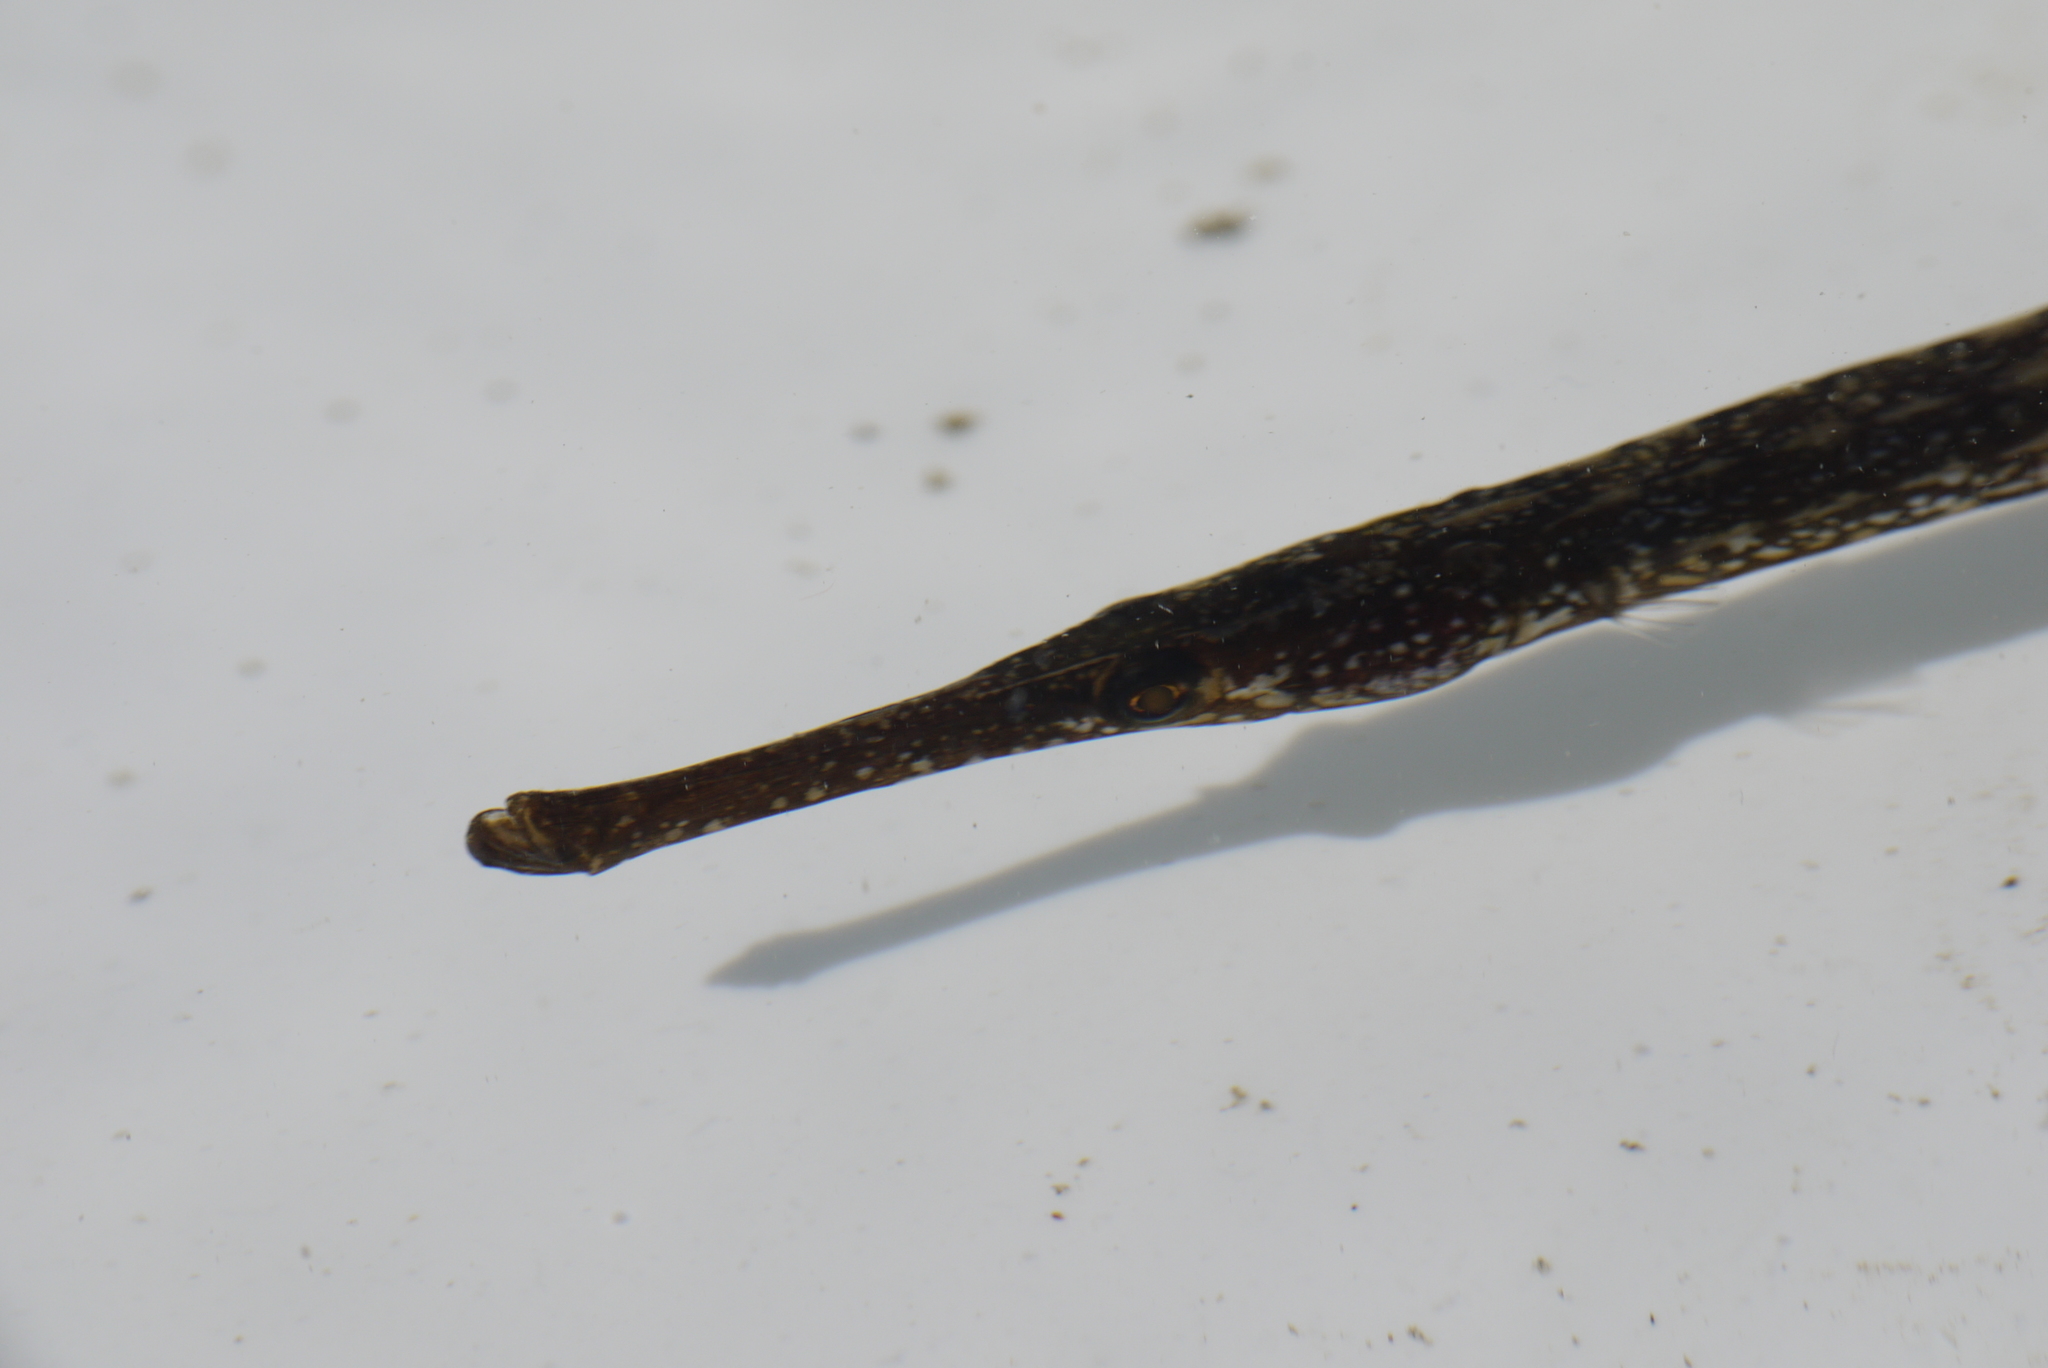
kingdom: Animalia
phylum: Chordata
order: Syngnathiformes
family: Syngnathidae
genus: Syngnathus
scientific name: Syngnathus typhle
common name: Deep-snouted pipefish
